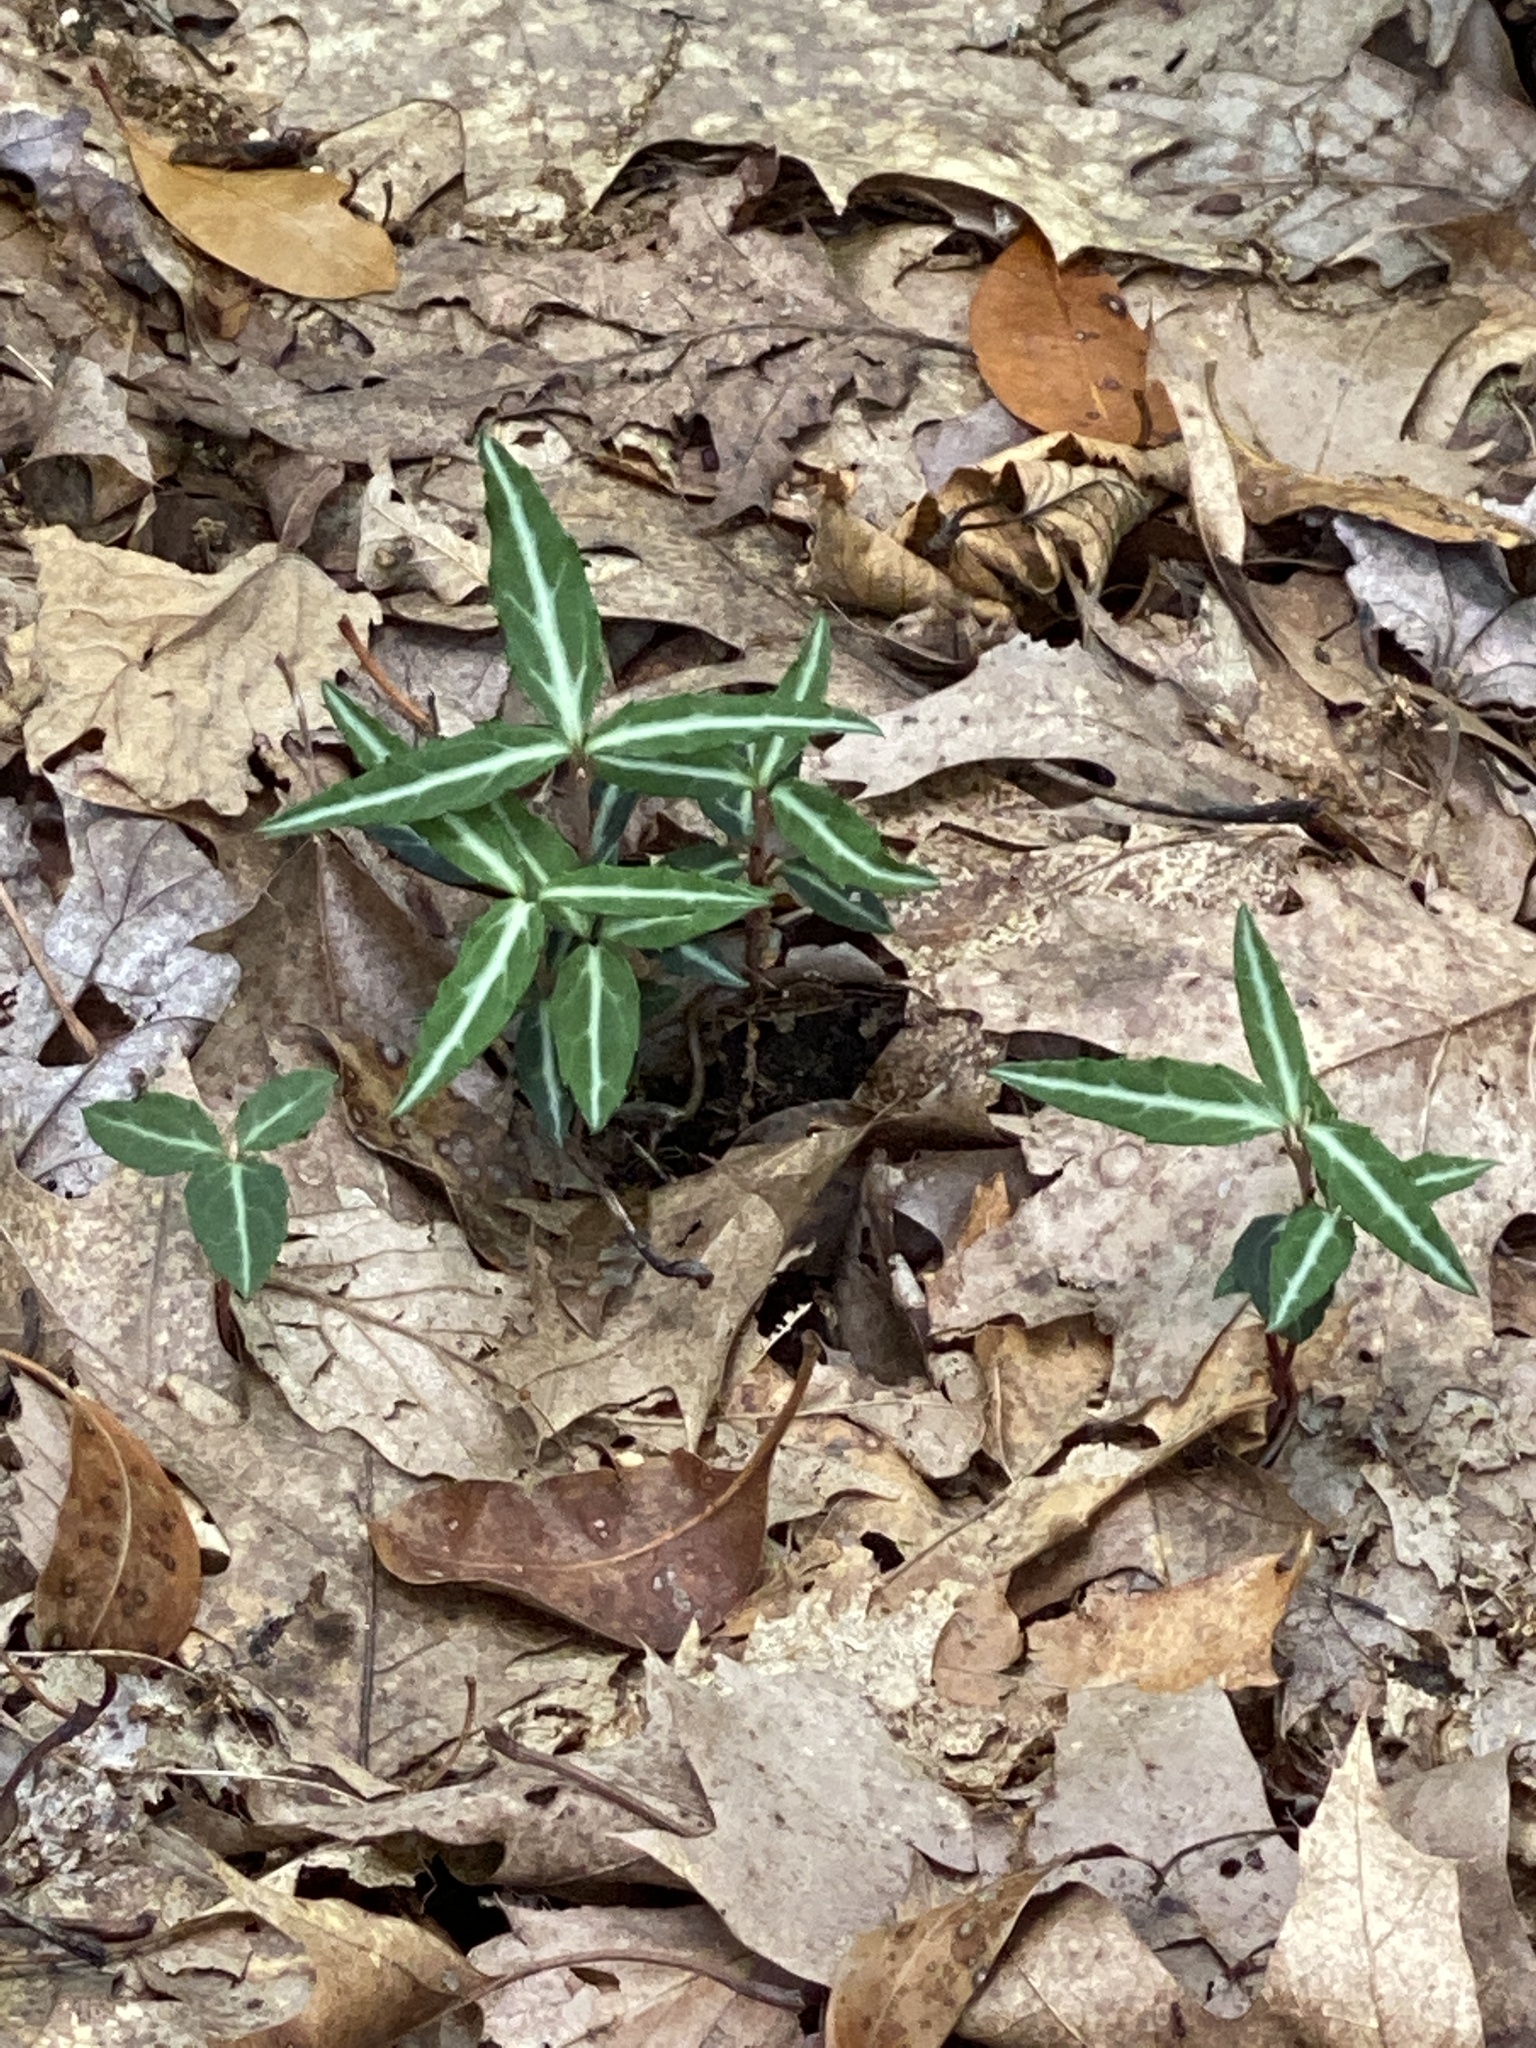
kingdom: Plantae
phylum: Tracheophyta
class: Magnoliopsida
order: Ericales
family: Ericaceae
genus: Chimaphila
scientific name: Chimaphila maculata
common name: Spotted pipsissewa
